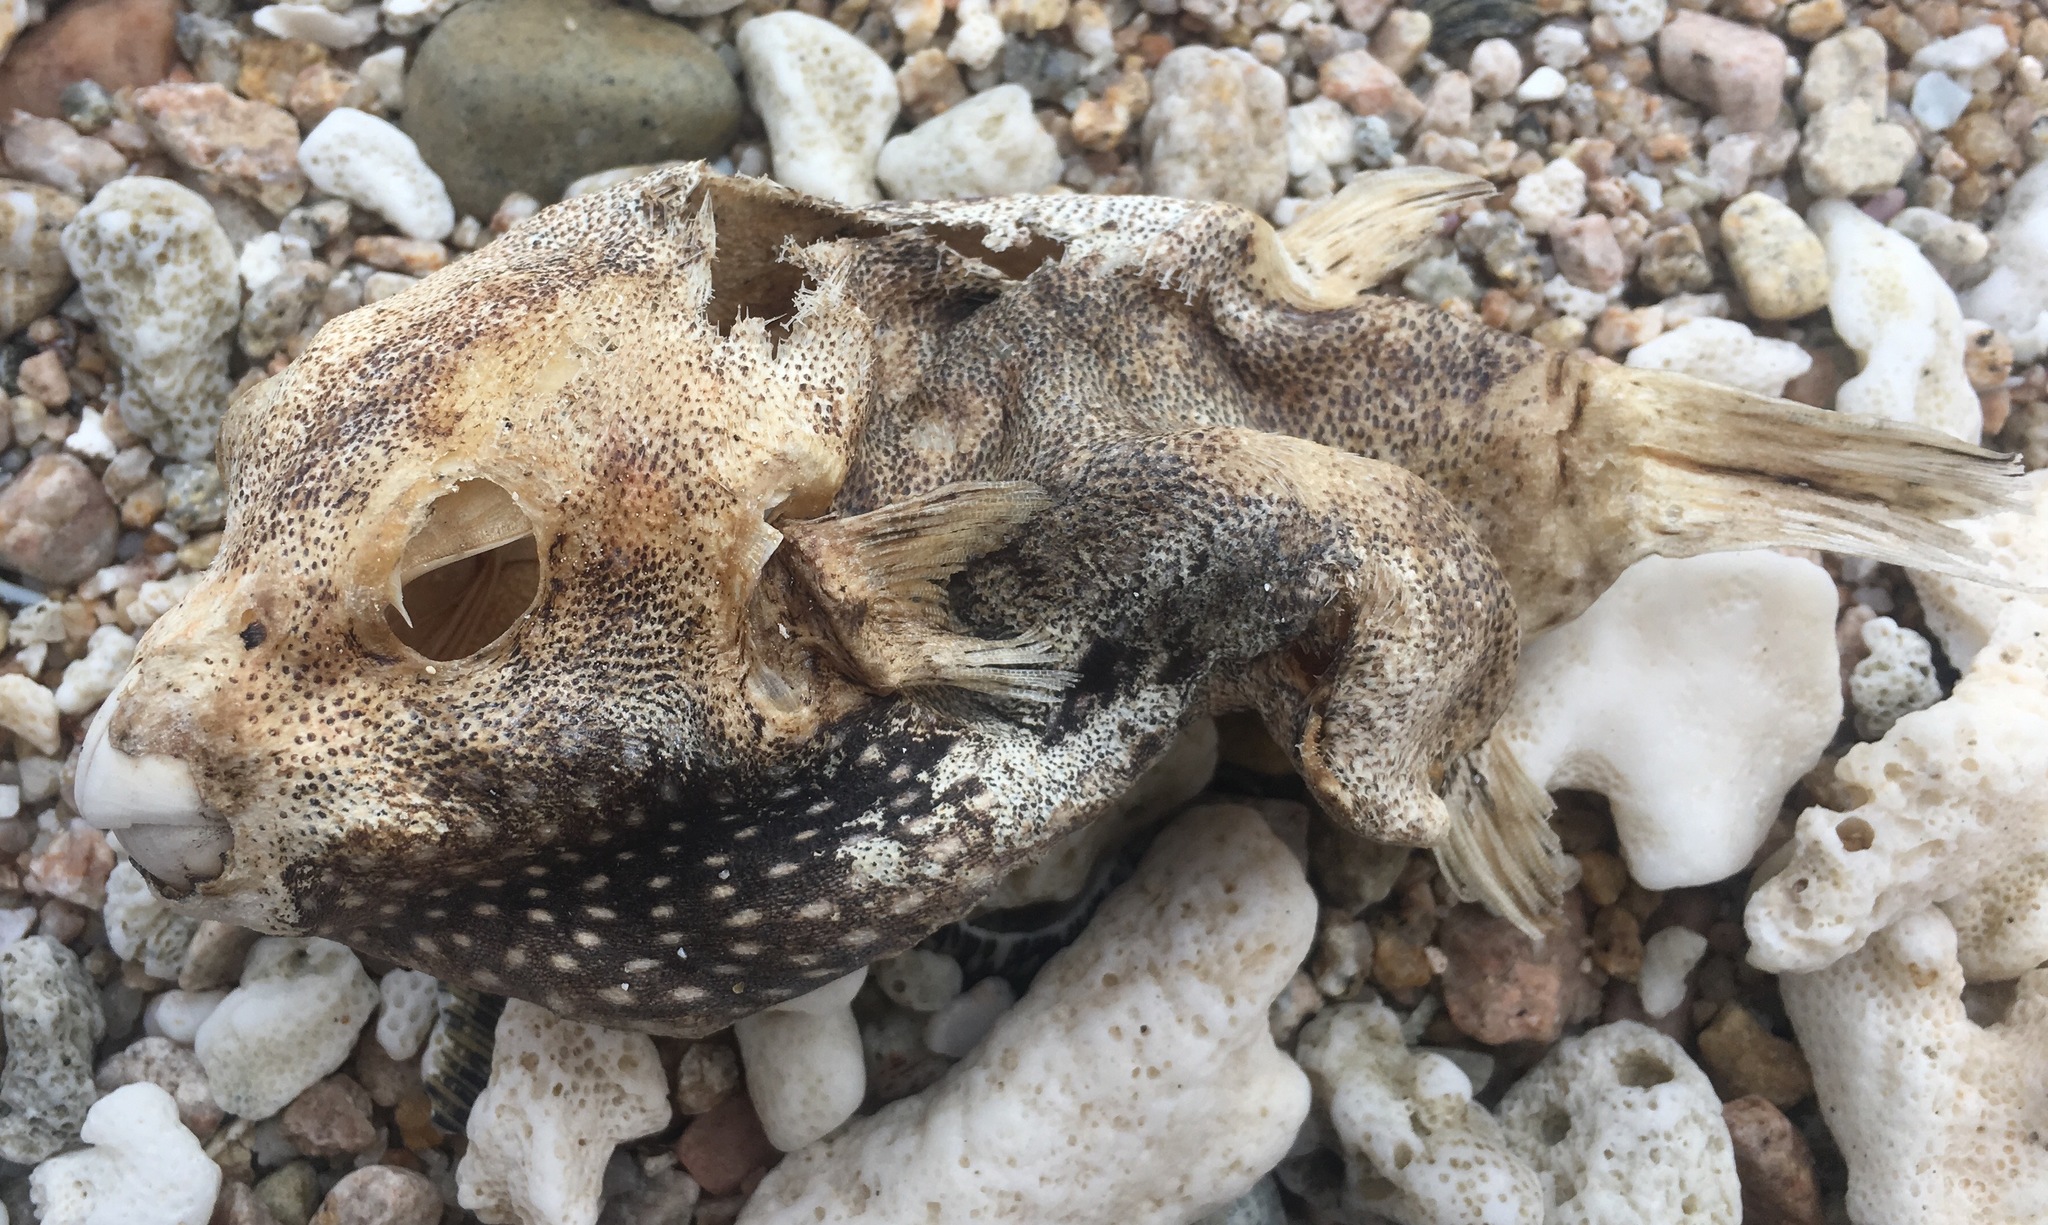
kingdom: Animalia
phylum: Chordata
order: Tetraodontiformes
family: Tetraodontidae
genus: Arothron
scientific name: Arothron meleagris
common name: Guinea-fowl pufferfish
